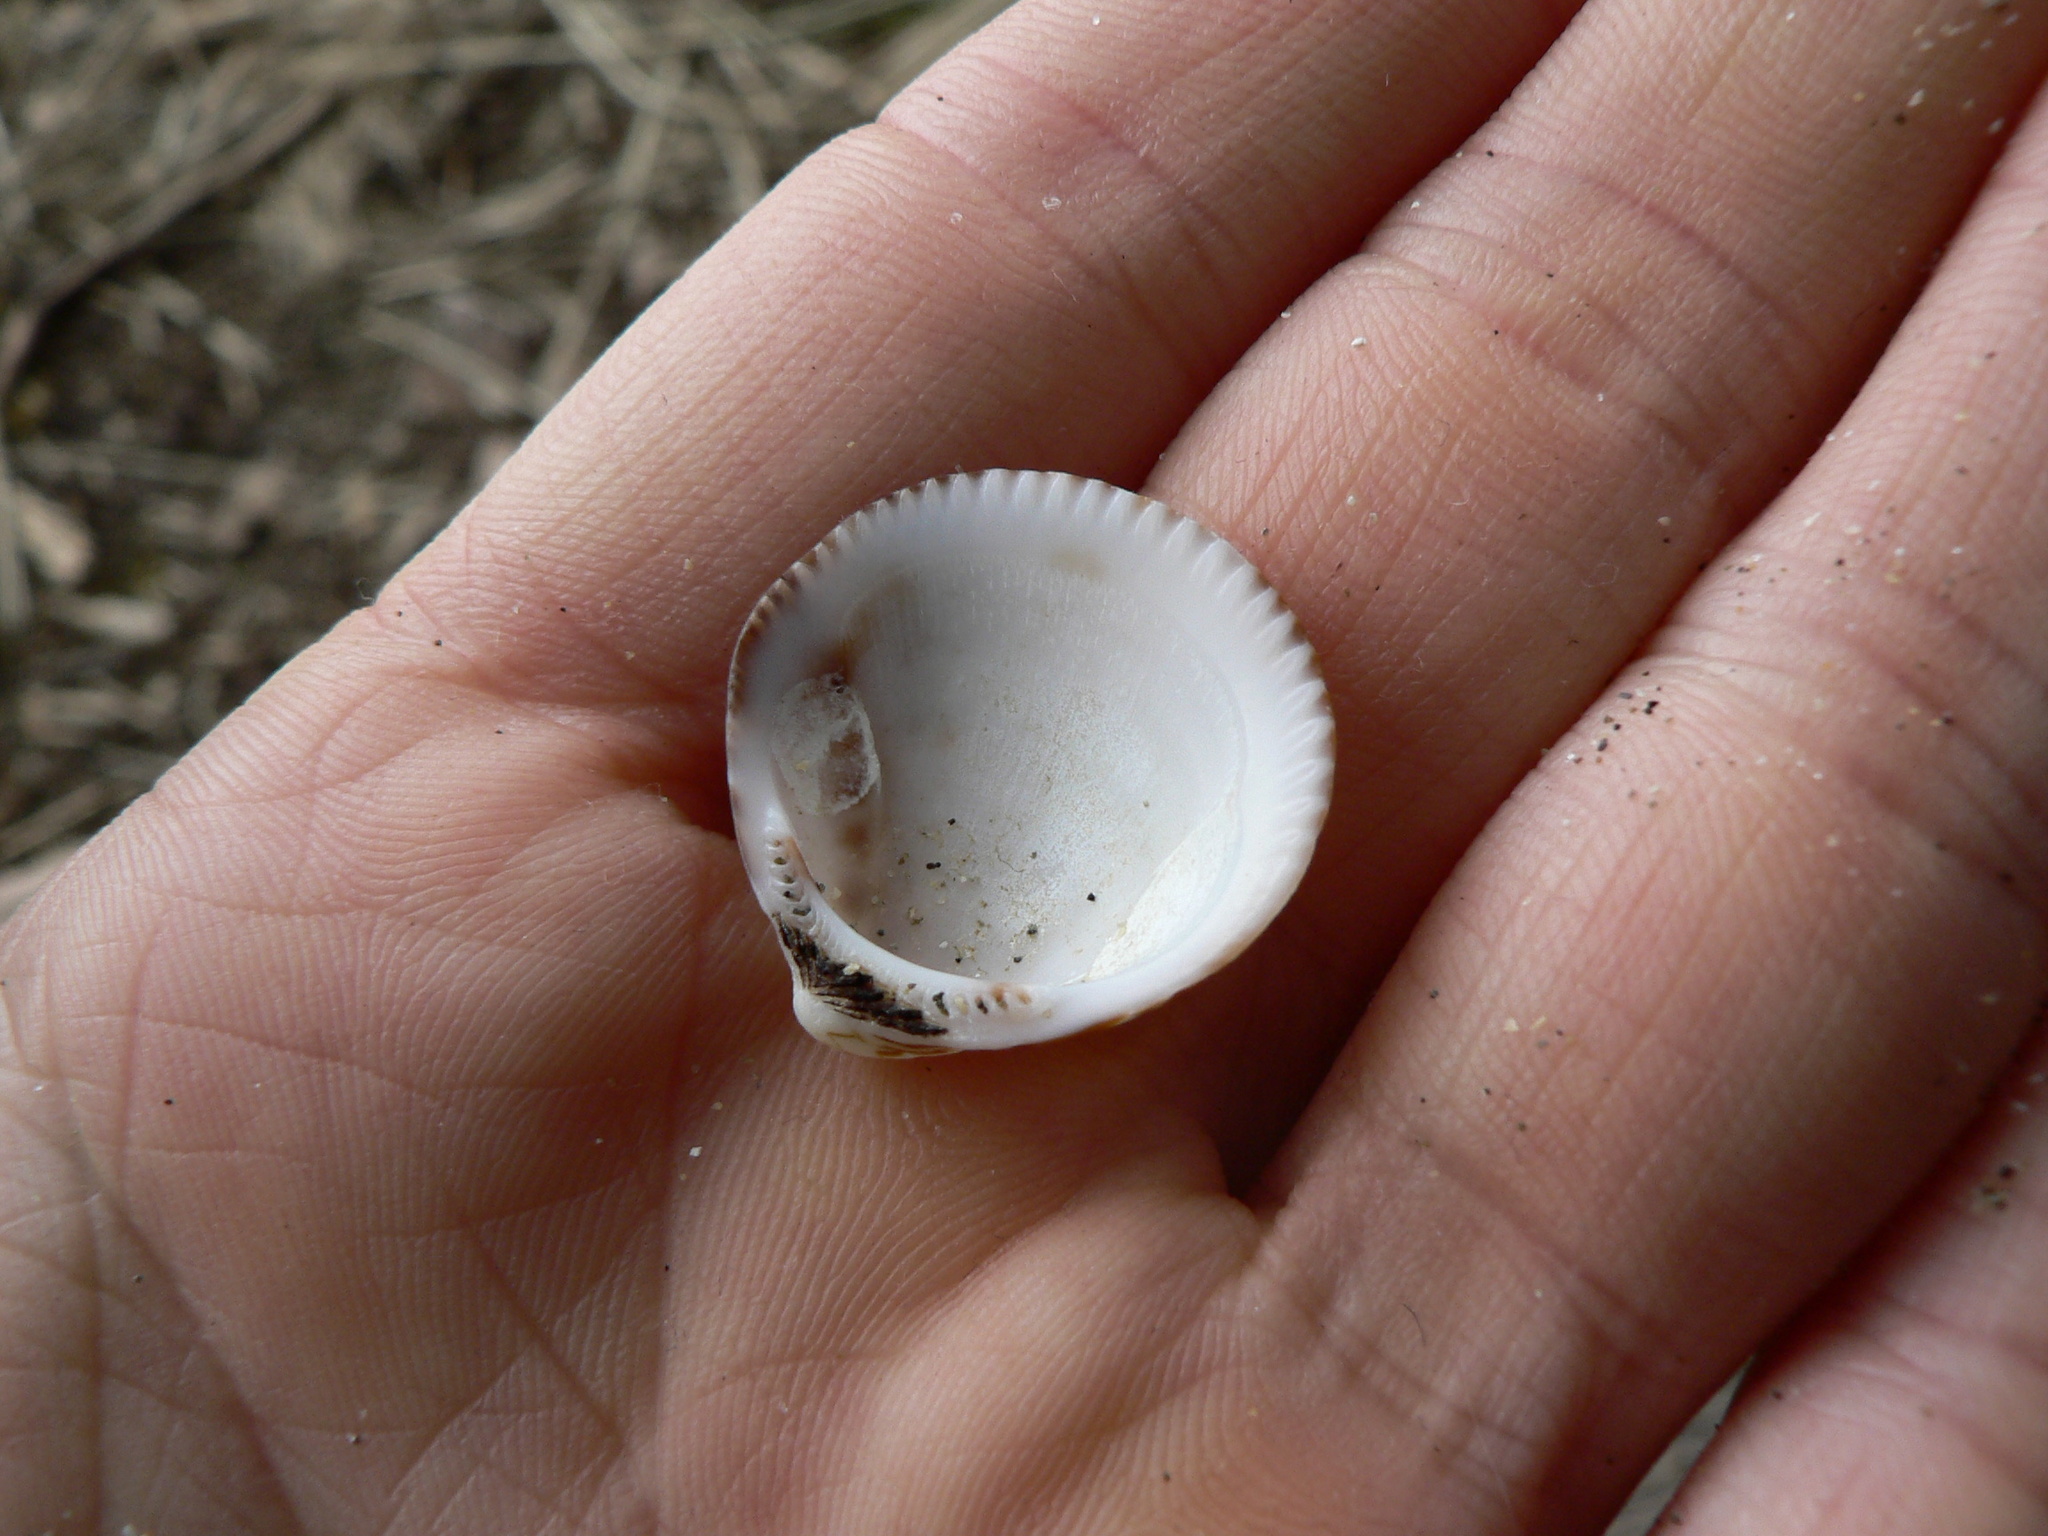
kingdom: Animalia
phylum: Mollusca
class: Bivalvia
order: Arcida
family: Glycymerididae
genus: Glycymeris
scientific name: Glycymeris septentrionalis
